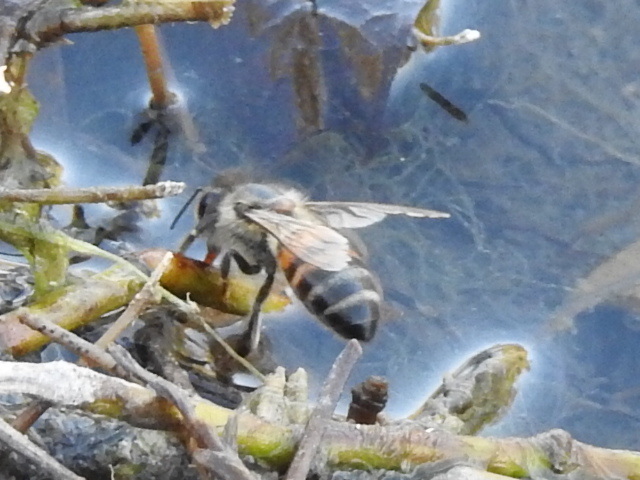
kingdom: Animalia
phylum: Arthropoda
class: Insecta
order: Hymenoptera
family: Apidae
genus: Apis
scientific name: Apis mellifera
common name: Honey bee
